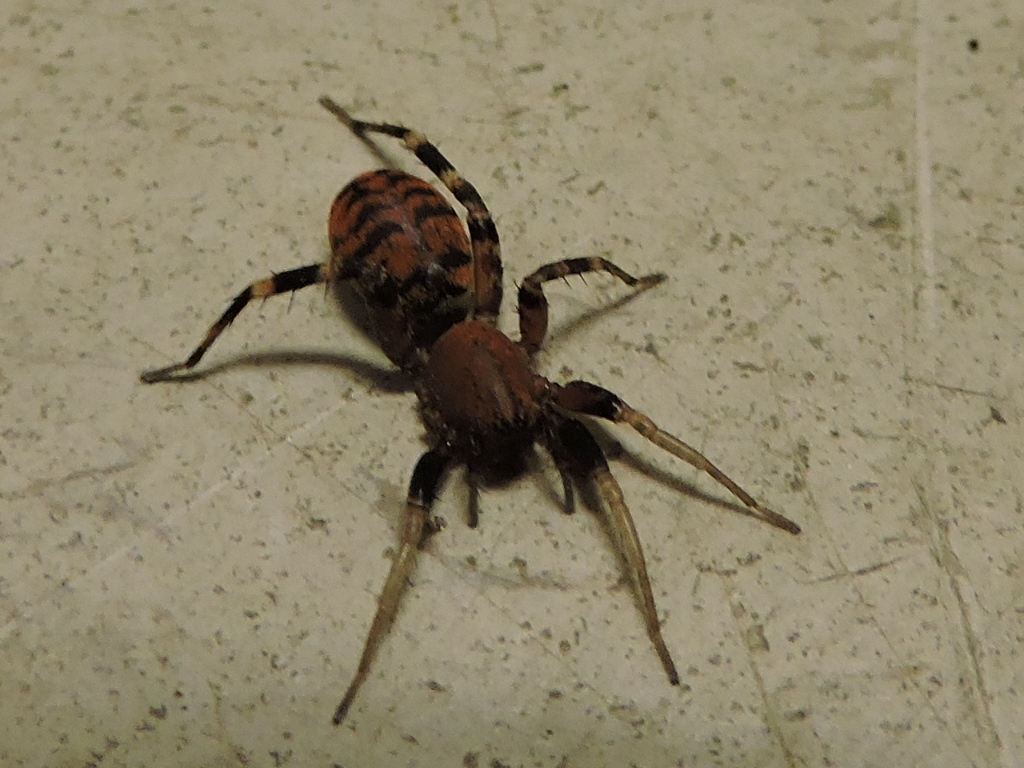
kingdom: Animalia
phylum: Arthropoda
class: Arachnida
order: Araneae
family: Corinnidae
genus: Castianeira
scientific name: Castianeira amoena
